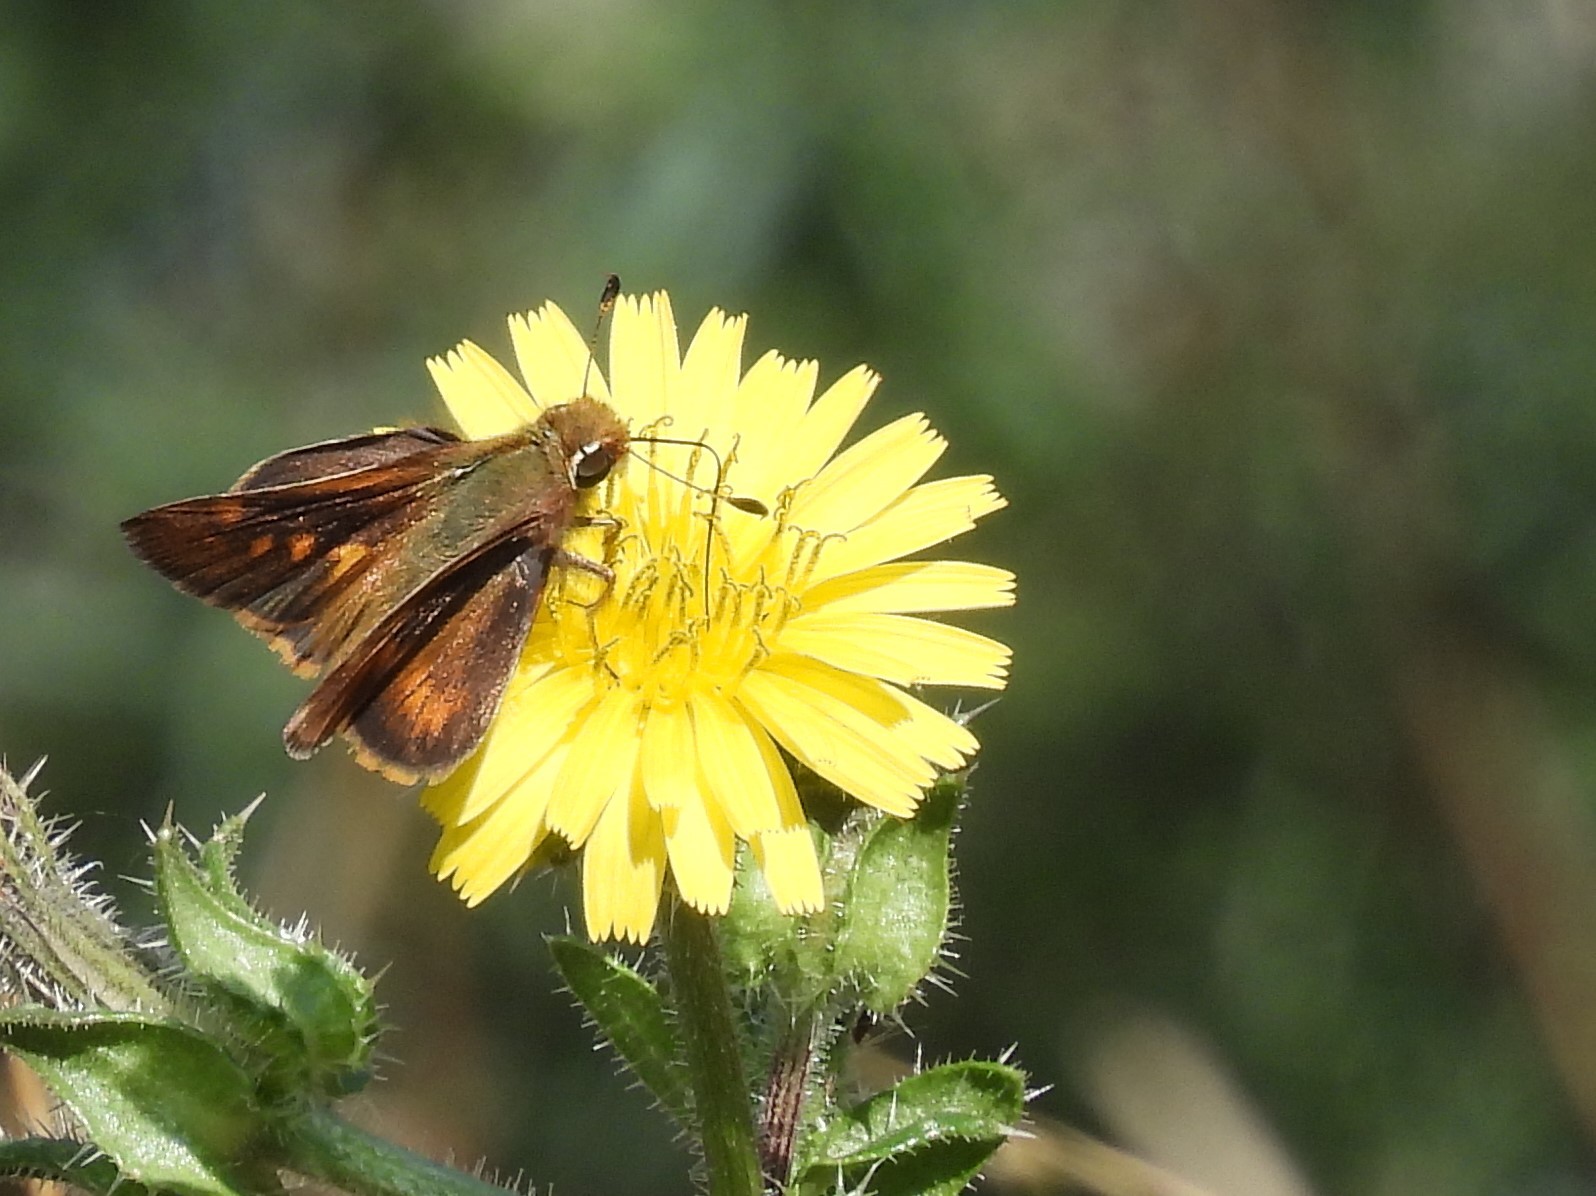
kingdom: Animalia
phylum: Arthropoda
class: Insecta
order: Lepidoptera
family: Hesperiidae
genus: Lon
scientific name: Lon melane
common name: Umber skipper
